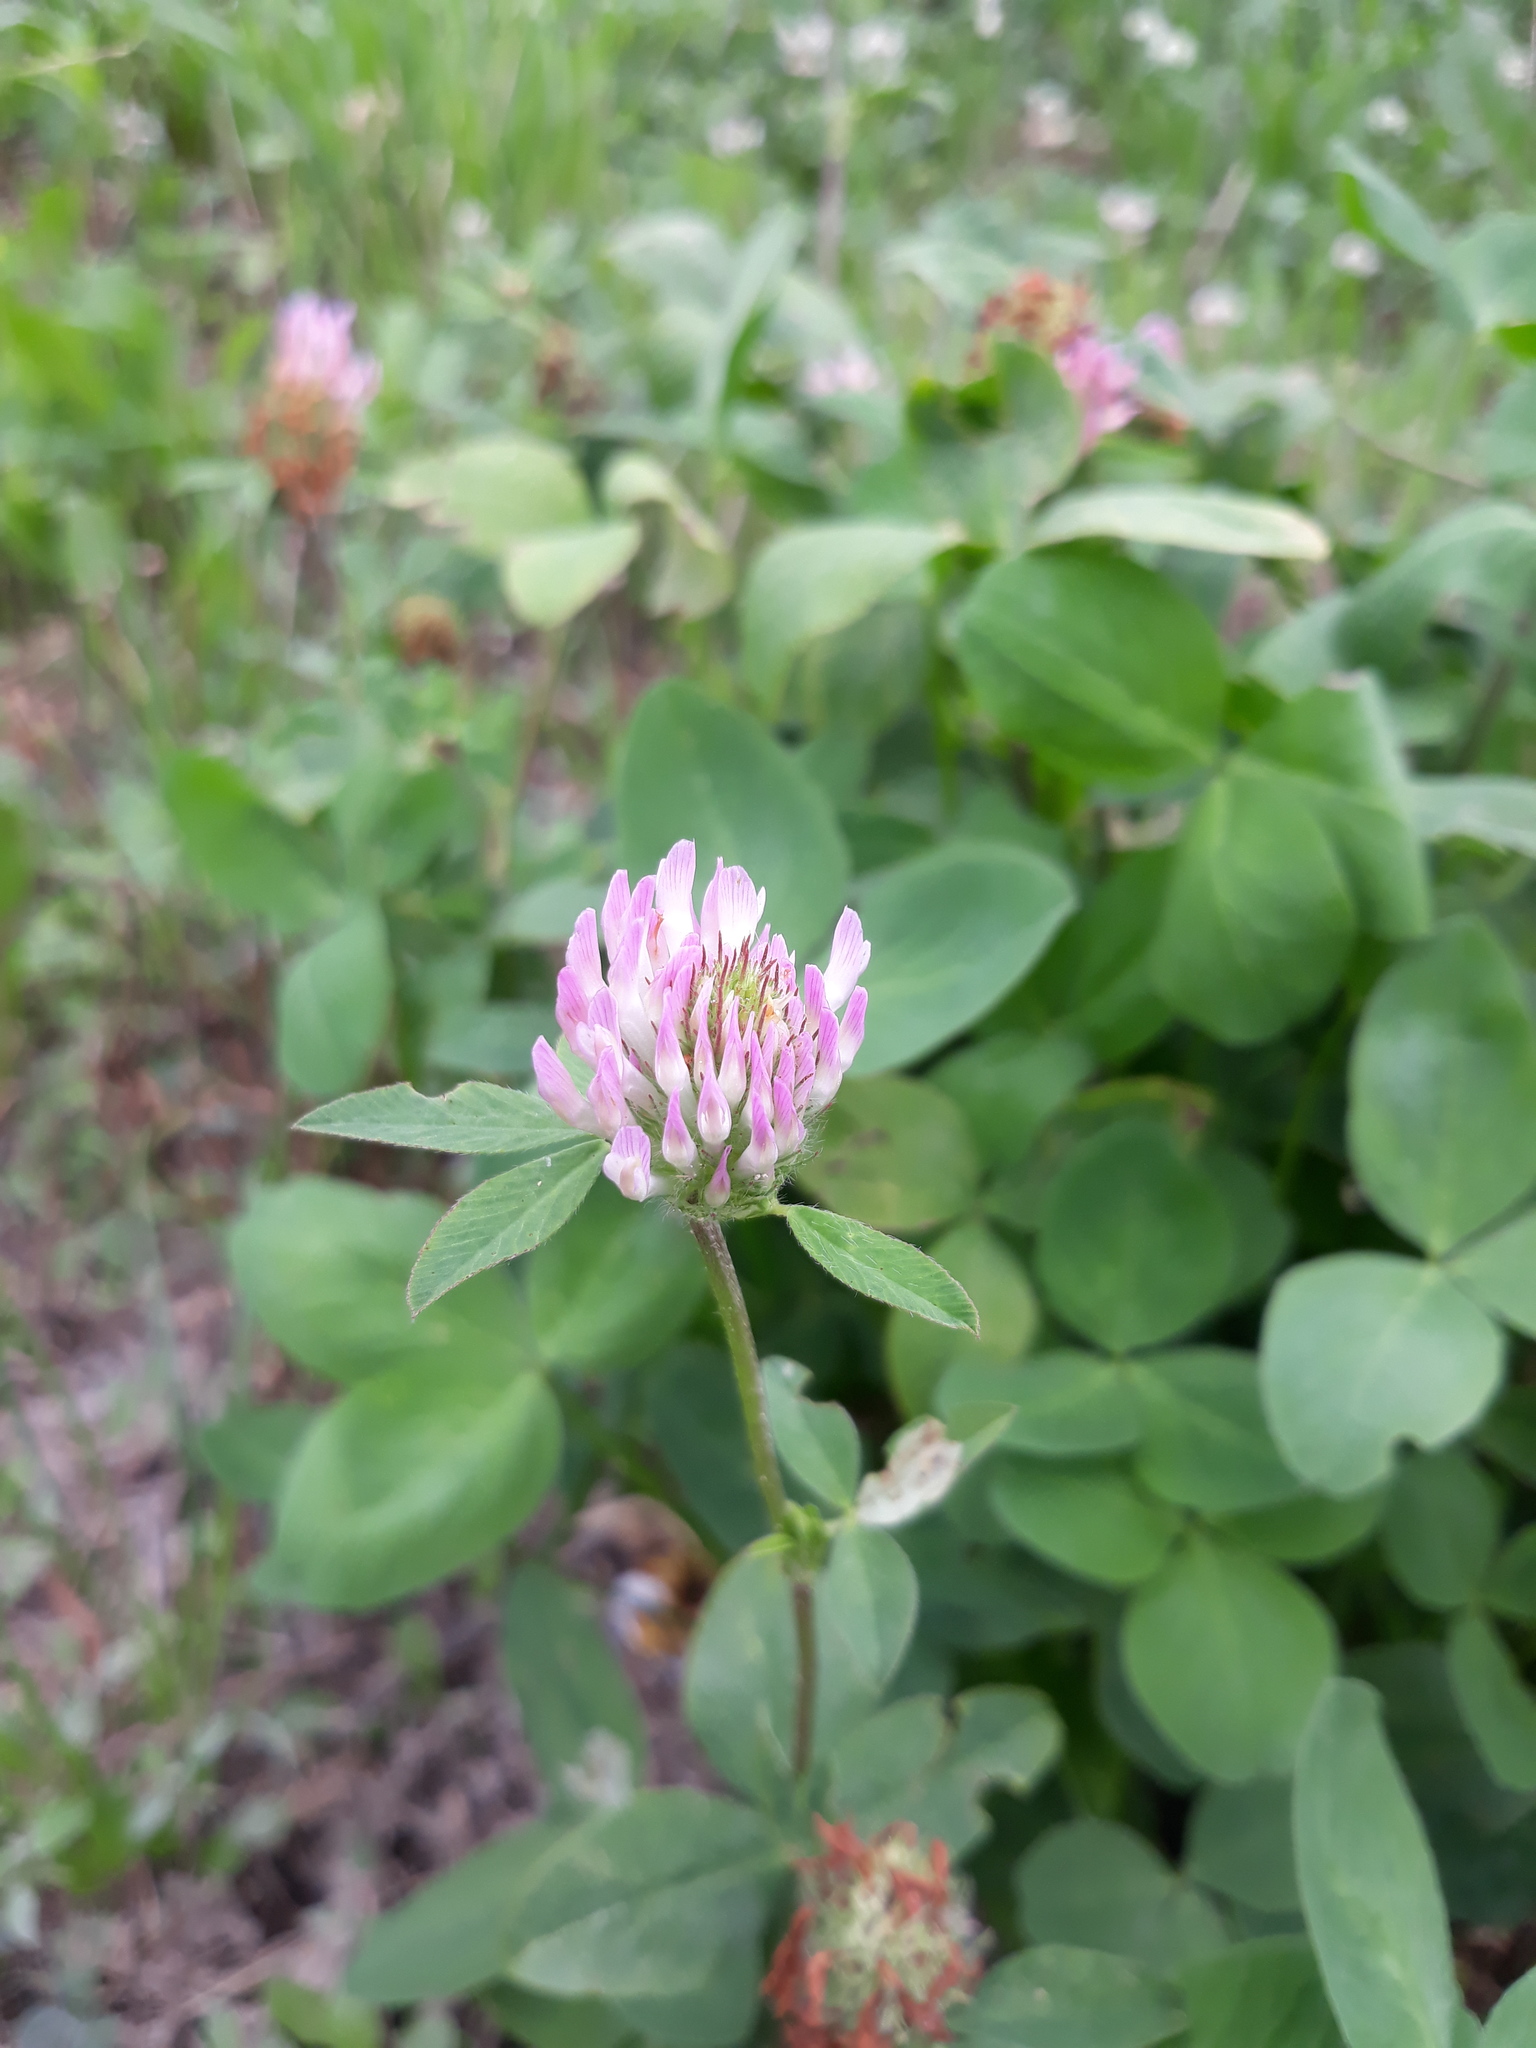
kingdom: Plantae
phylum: Tracheophyta
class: Magnoliopsida
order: Fabales
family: Fabaceae
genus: Trifolium
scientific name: Trifolium pratense
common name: Red clover
